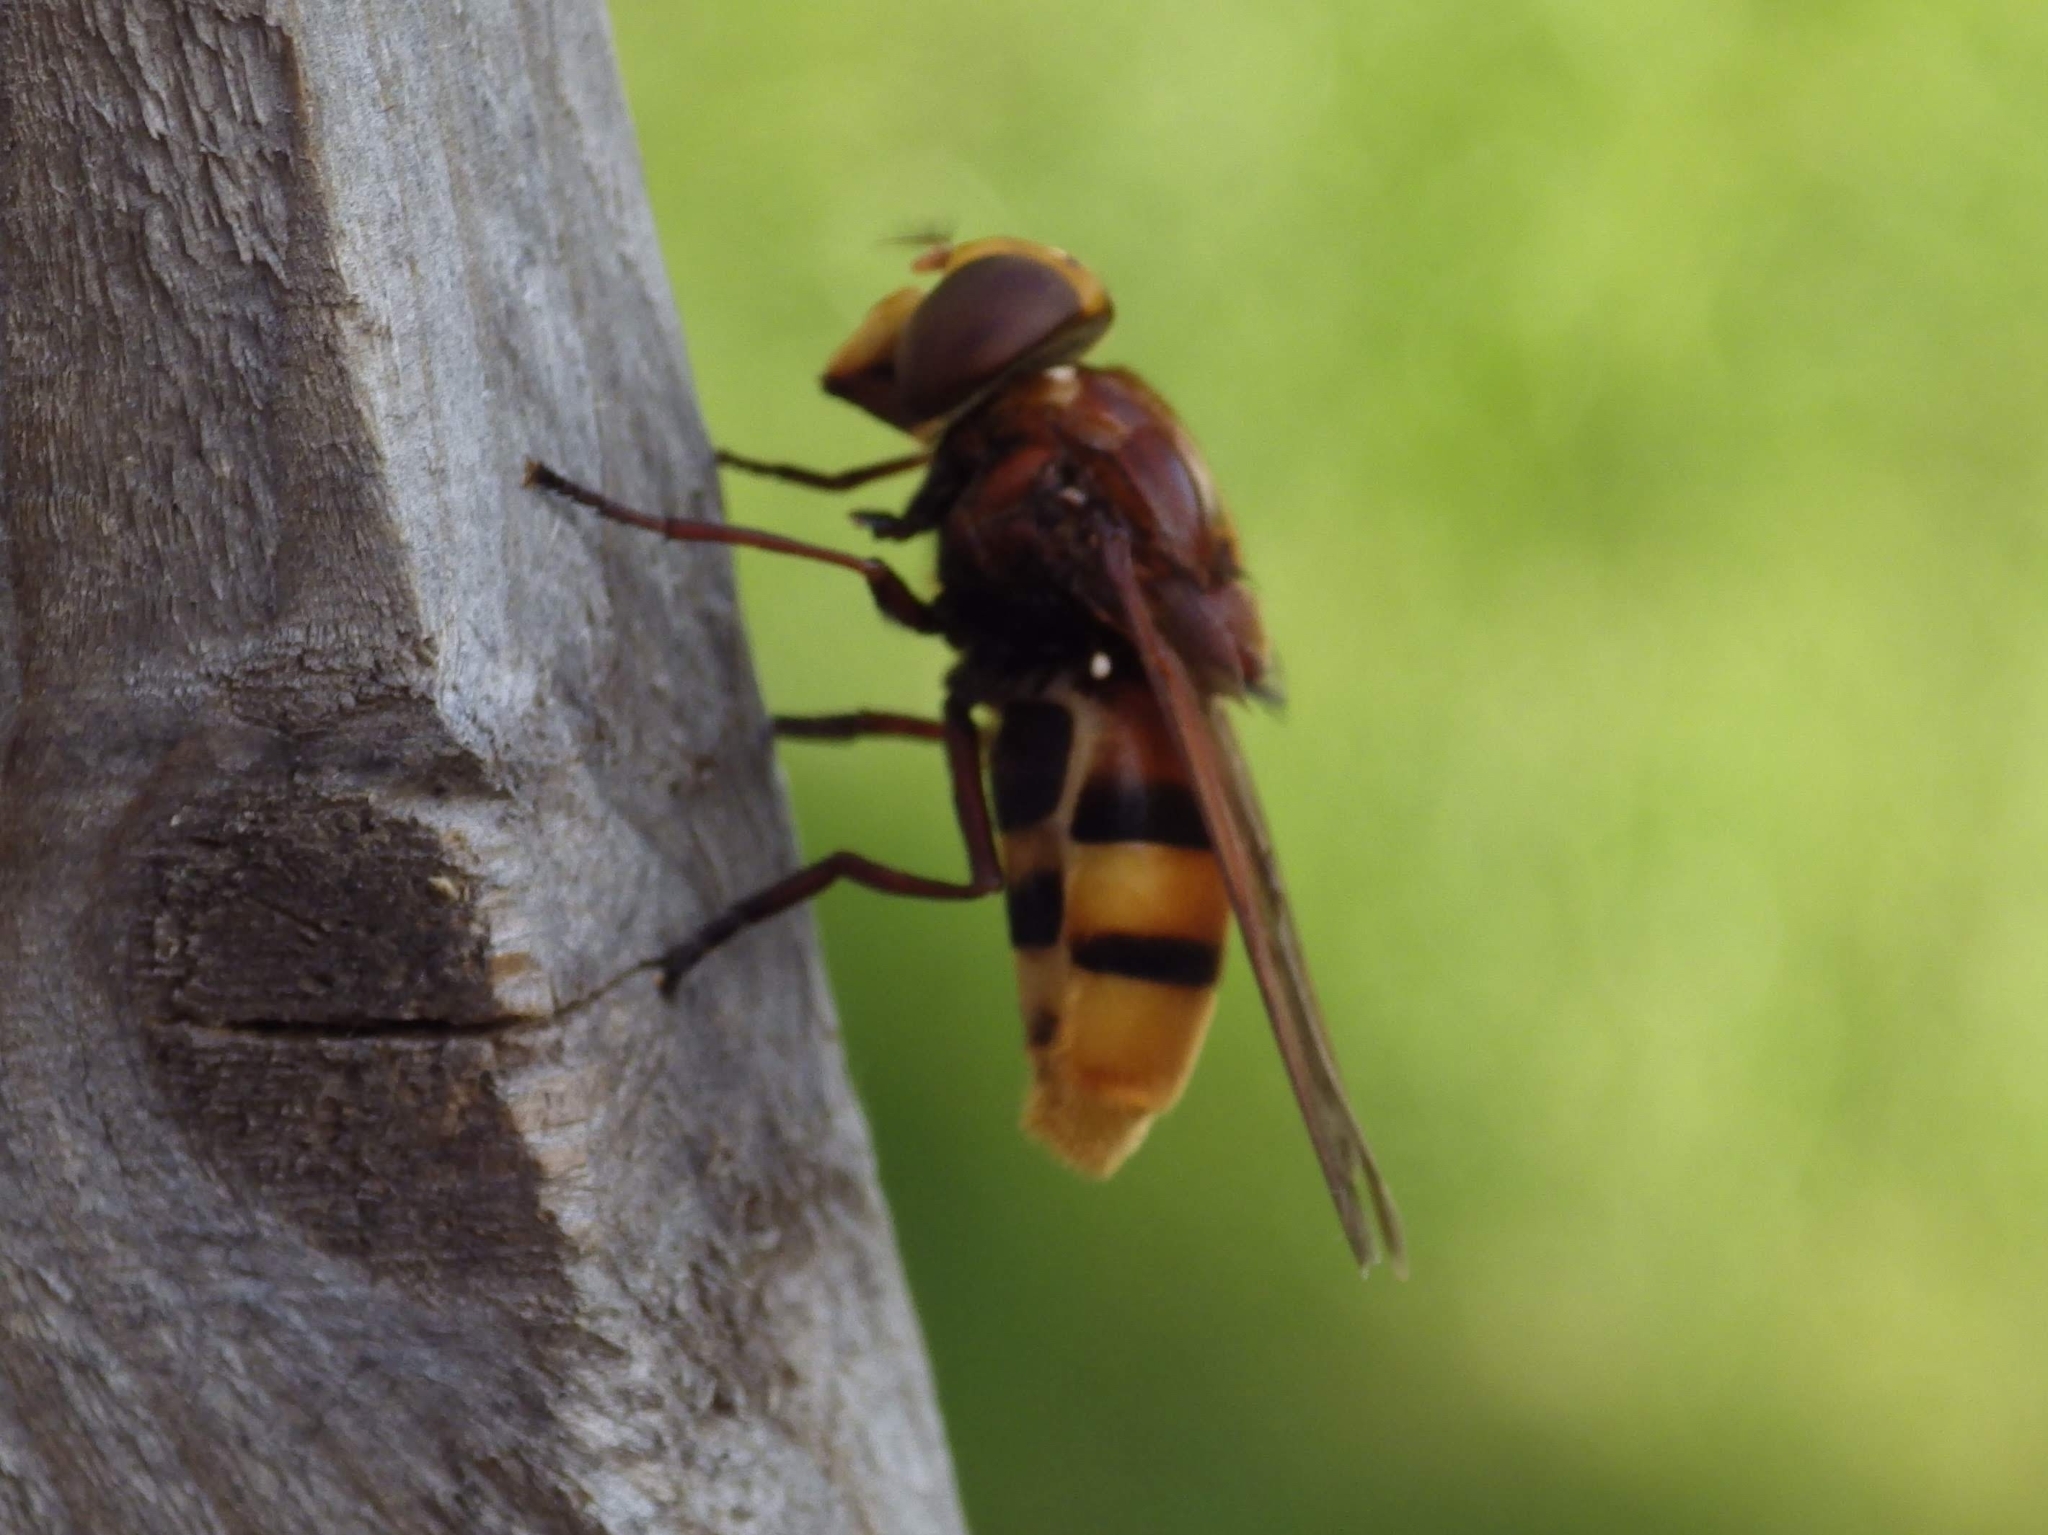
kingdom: Animalia
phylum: Arthropoda
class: Insecta
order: Diptera
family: Syrphidae
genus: Volucella
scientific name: Volucella zonaria
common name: Hornet hoverfly
